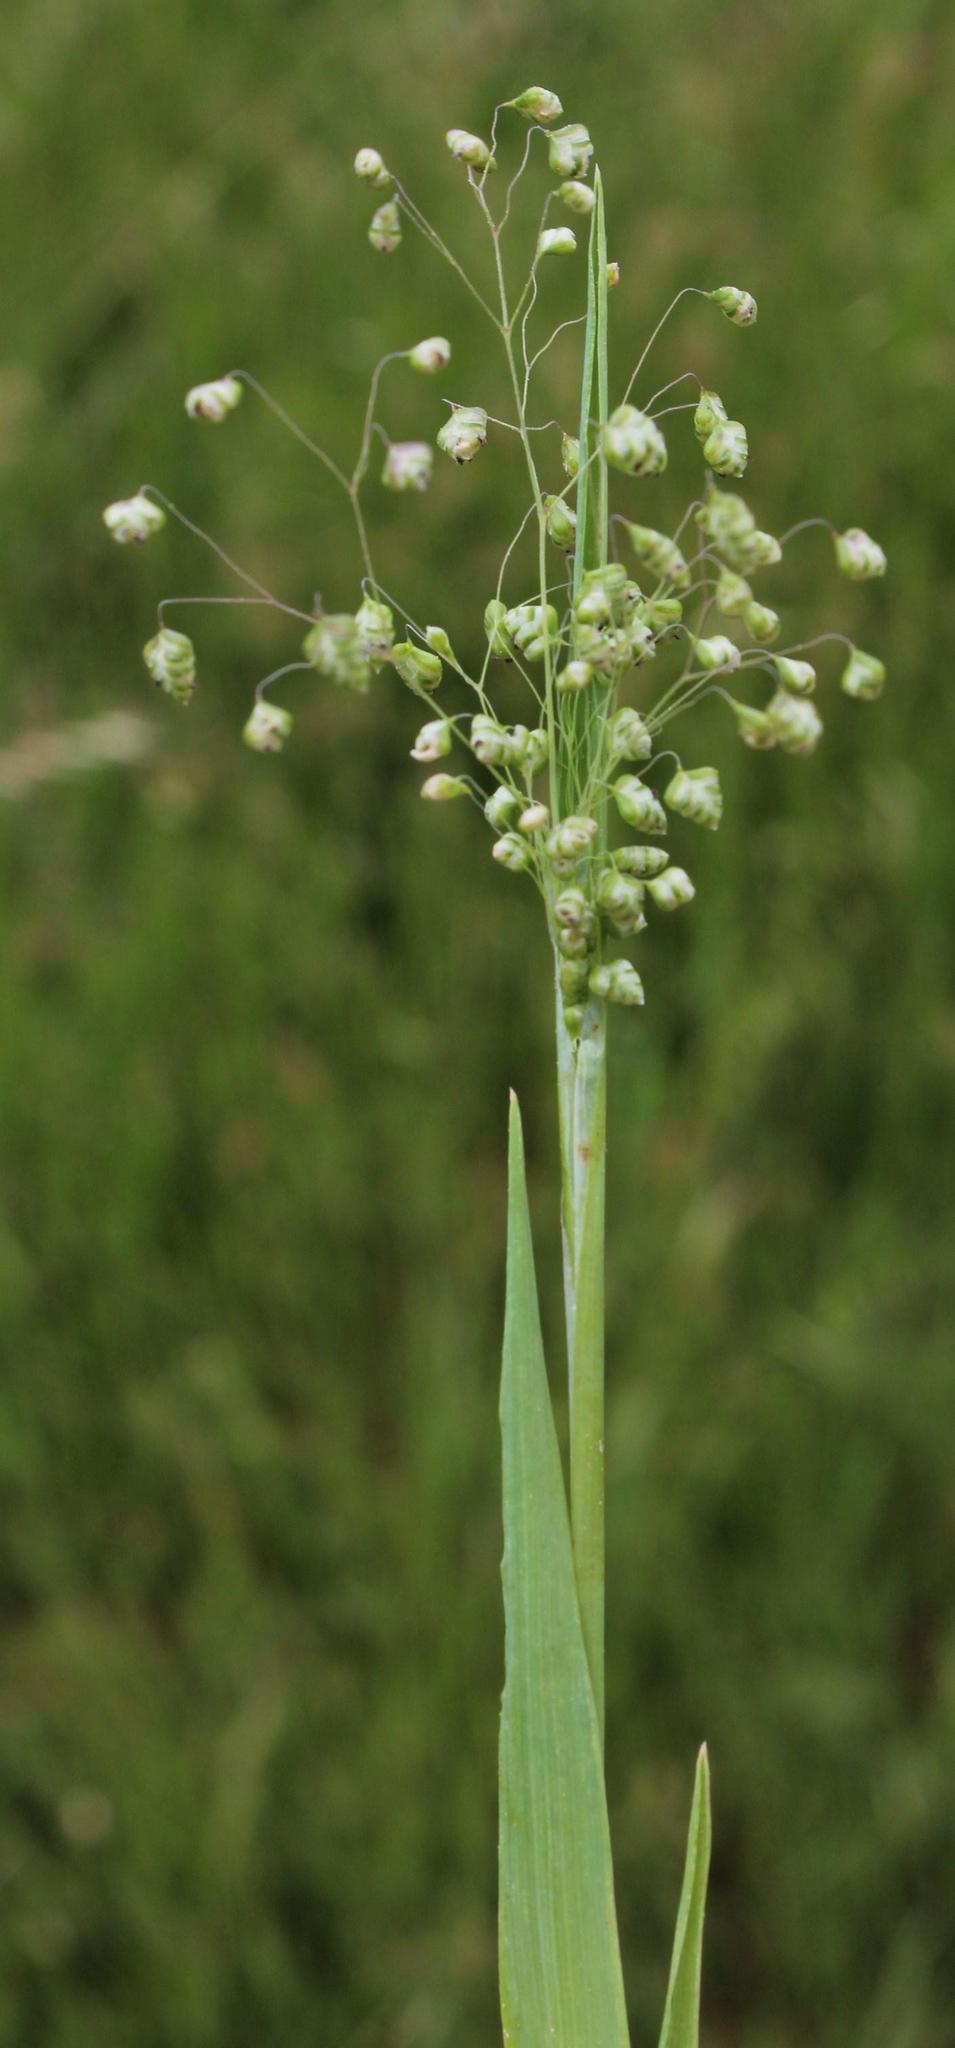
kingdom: Plantae
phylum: Tracheophyta
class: Liliopsida
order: Poales
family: Poaceae
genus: Briza
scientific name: Briza minor
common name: Lesser quaking-grass
